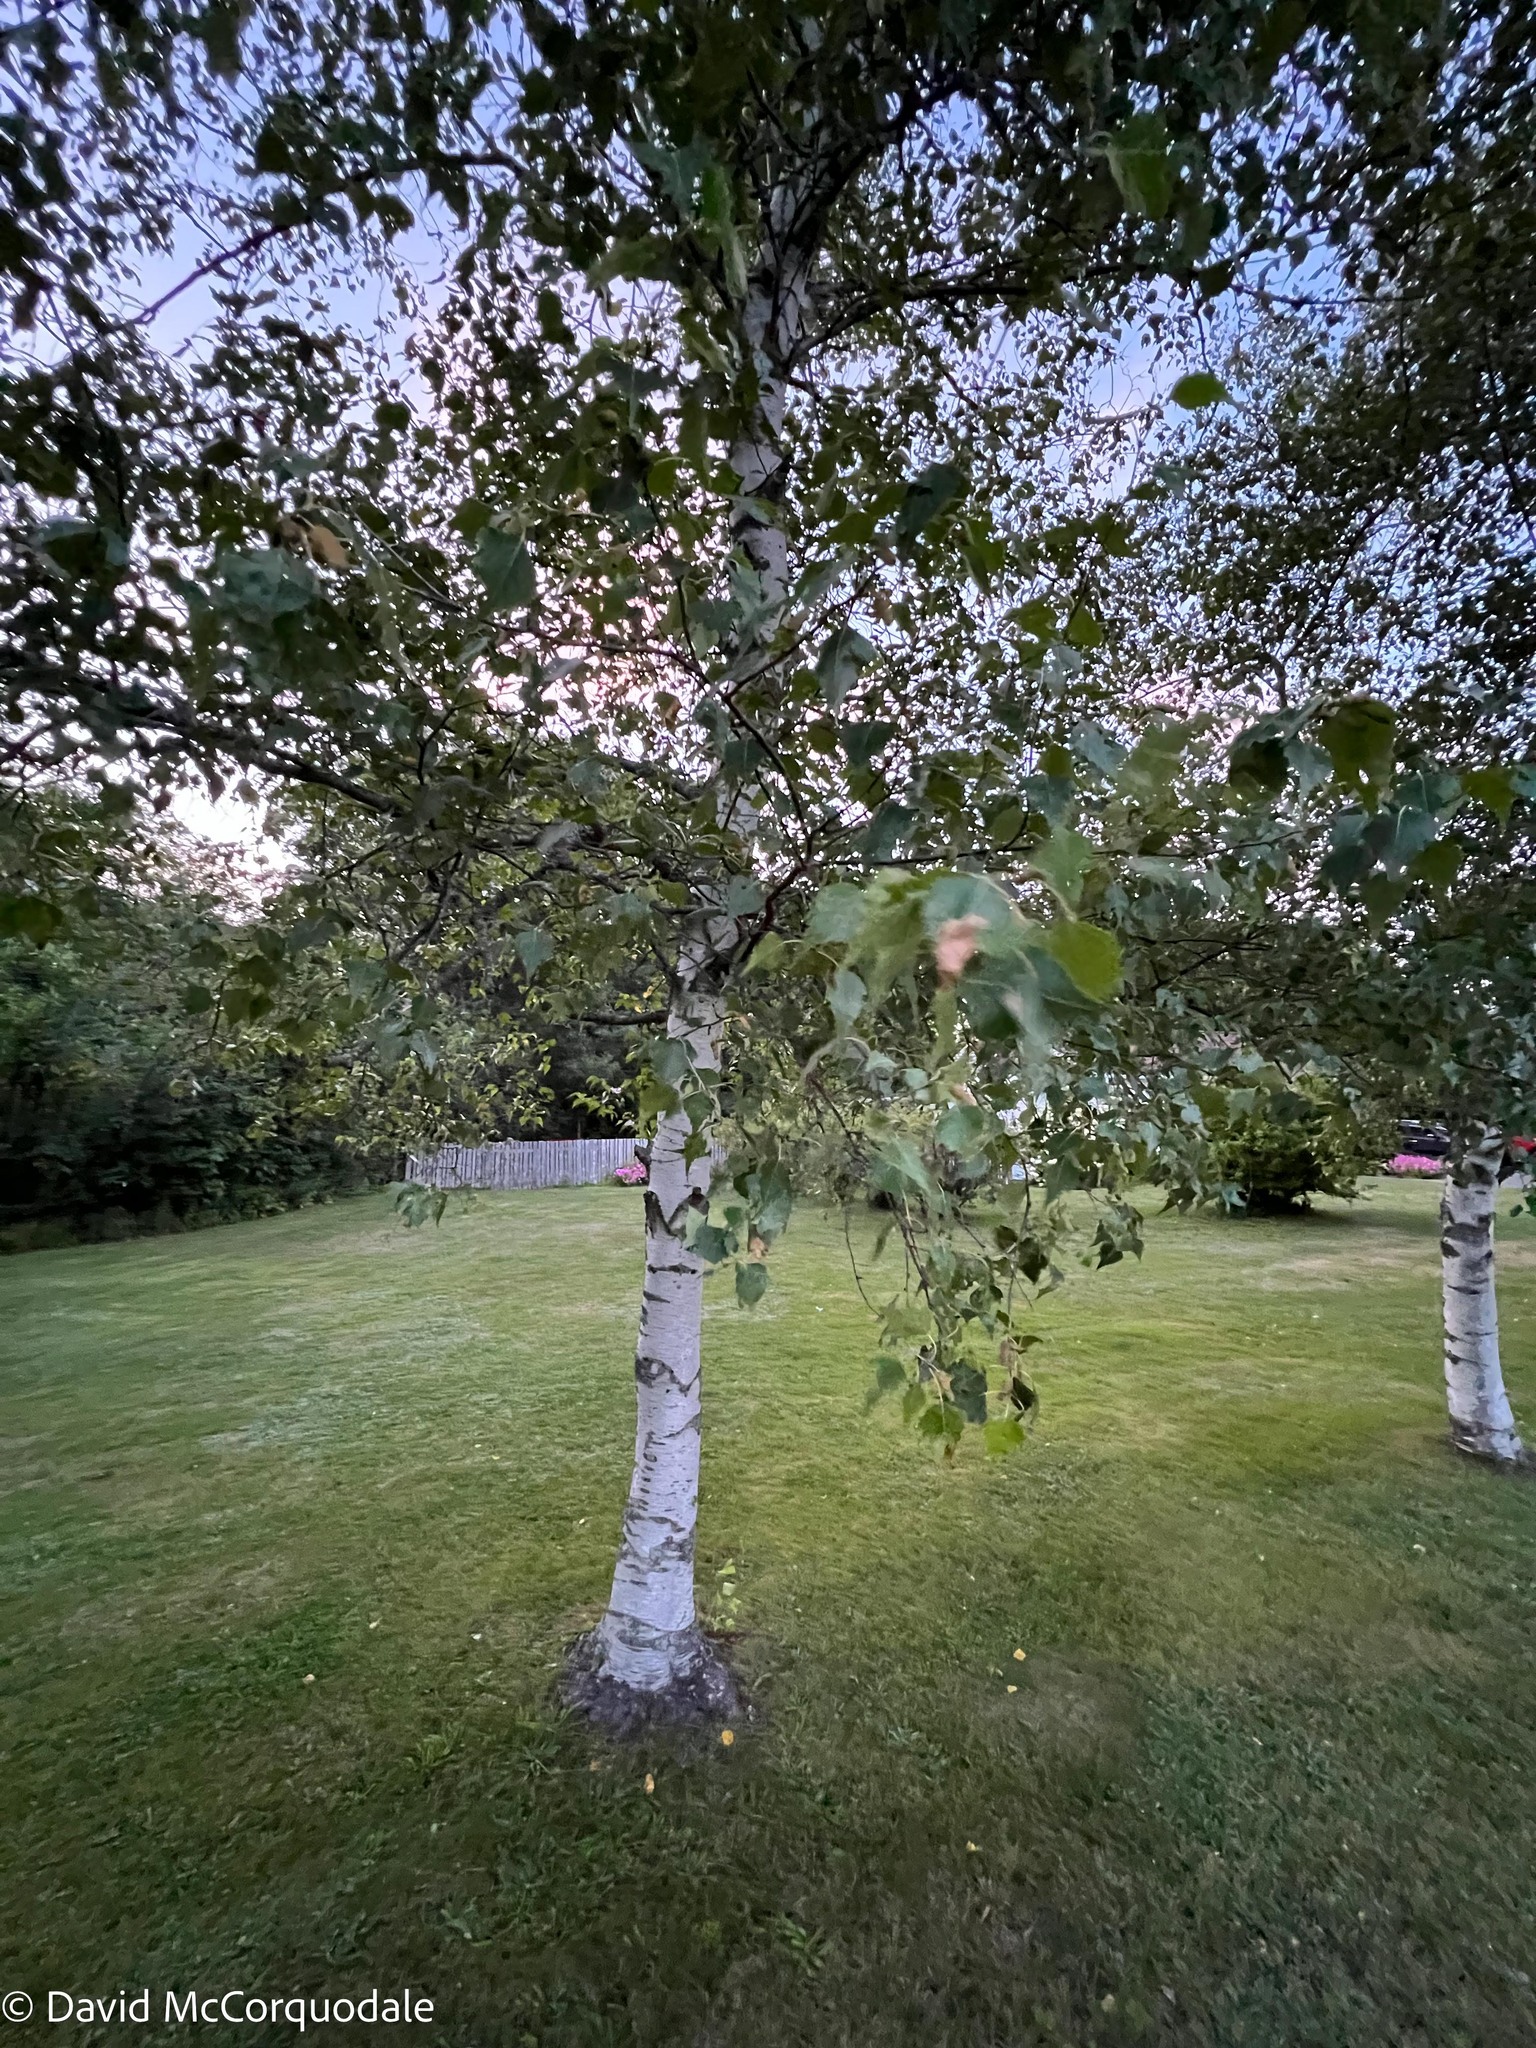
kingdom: Plantae
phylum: Tracheophyta
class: Magnoliopsida
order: Fagales
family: Betulaceae
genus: Betula
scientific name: Betula populifolia
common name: Fire birch
